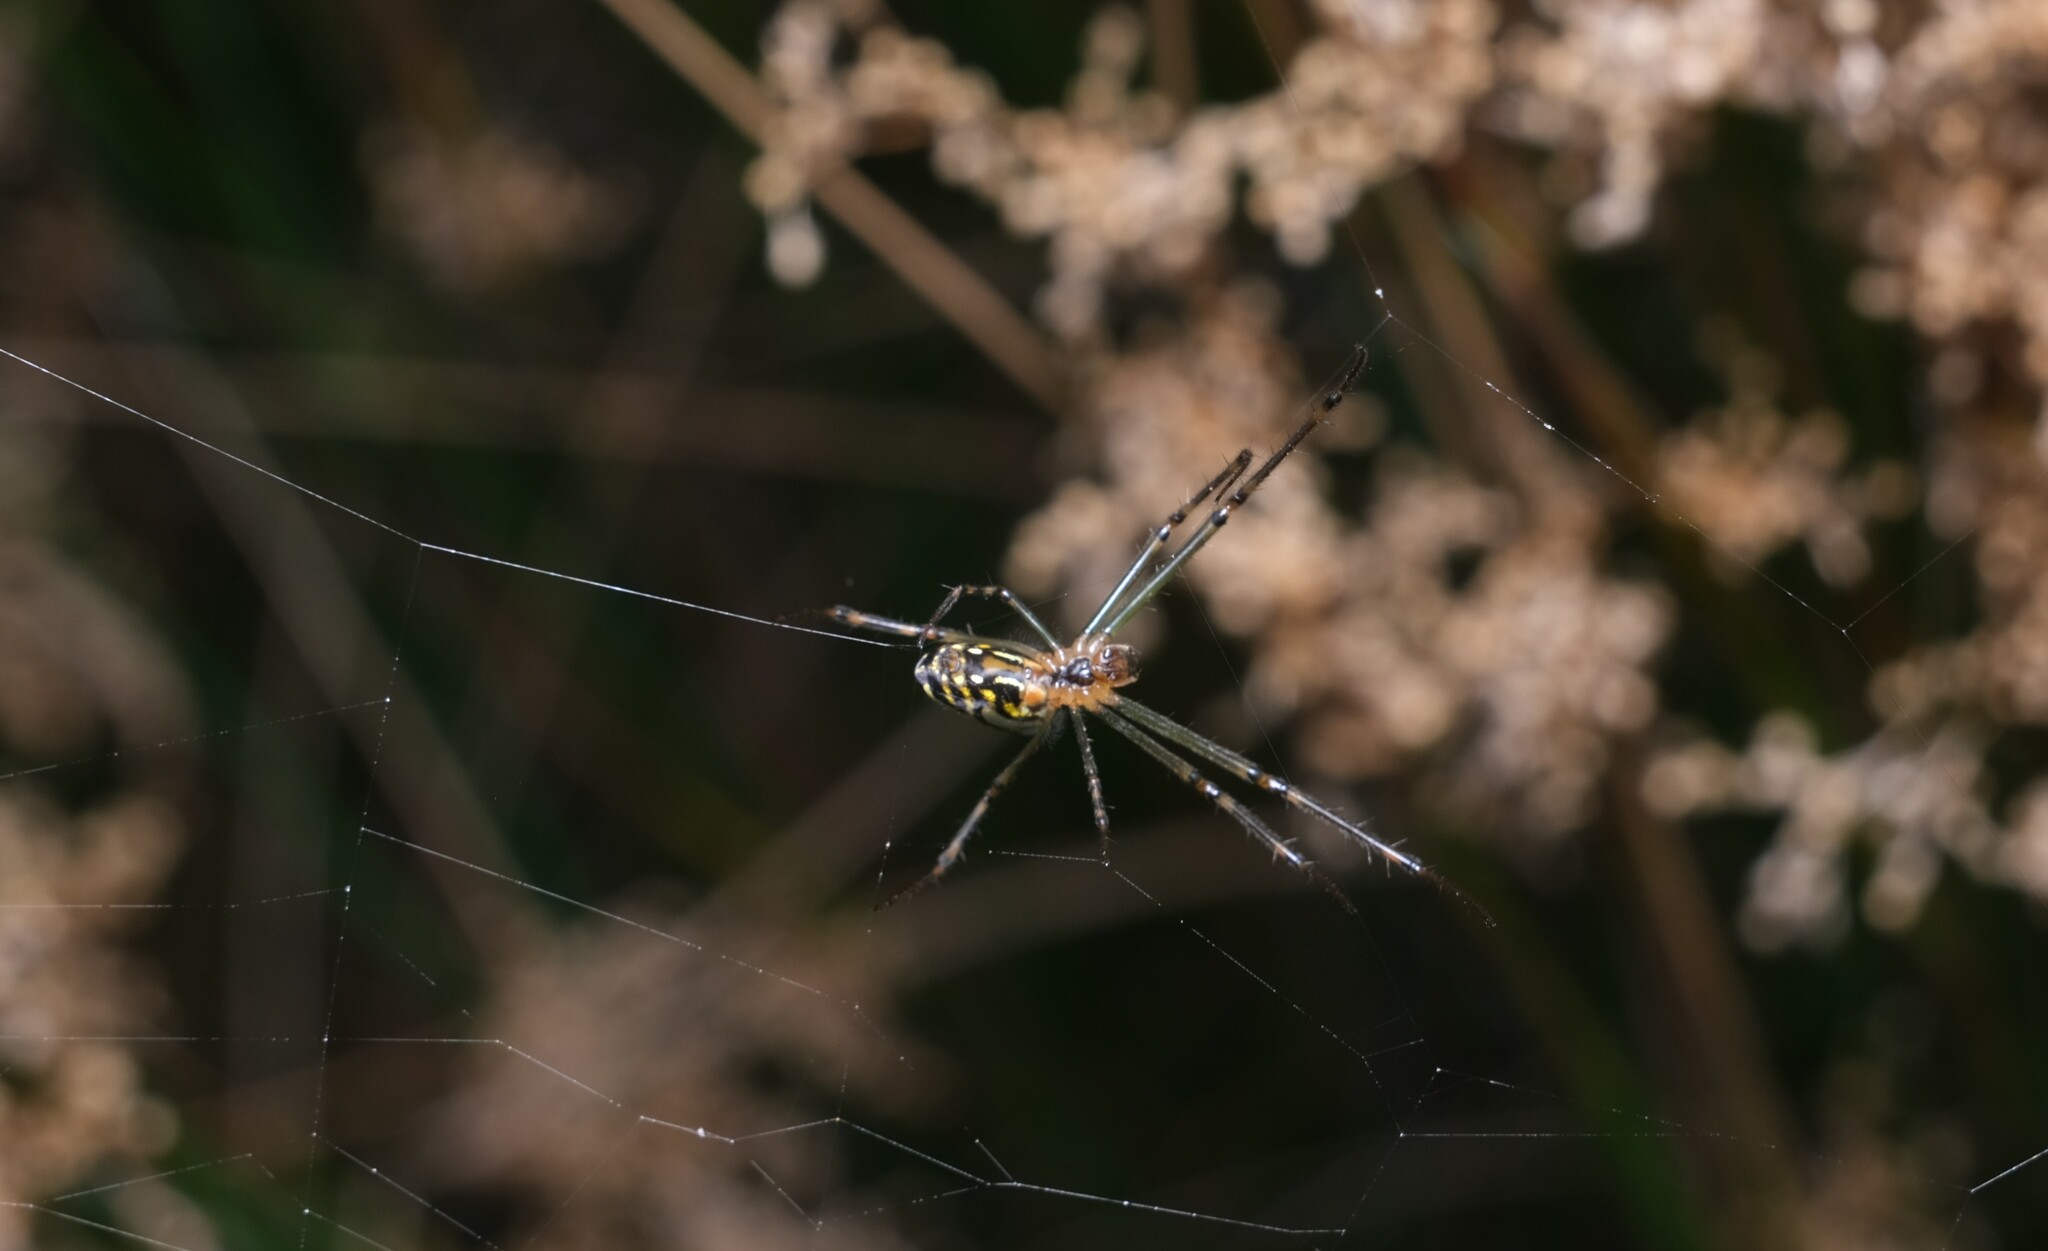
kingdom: Animalia
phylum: Arthropoda
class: Arachnida
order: Araneae
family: Tetragnathidae
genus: Leucauge
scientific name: Leucauge dromedaria
